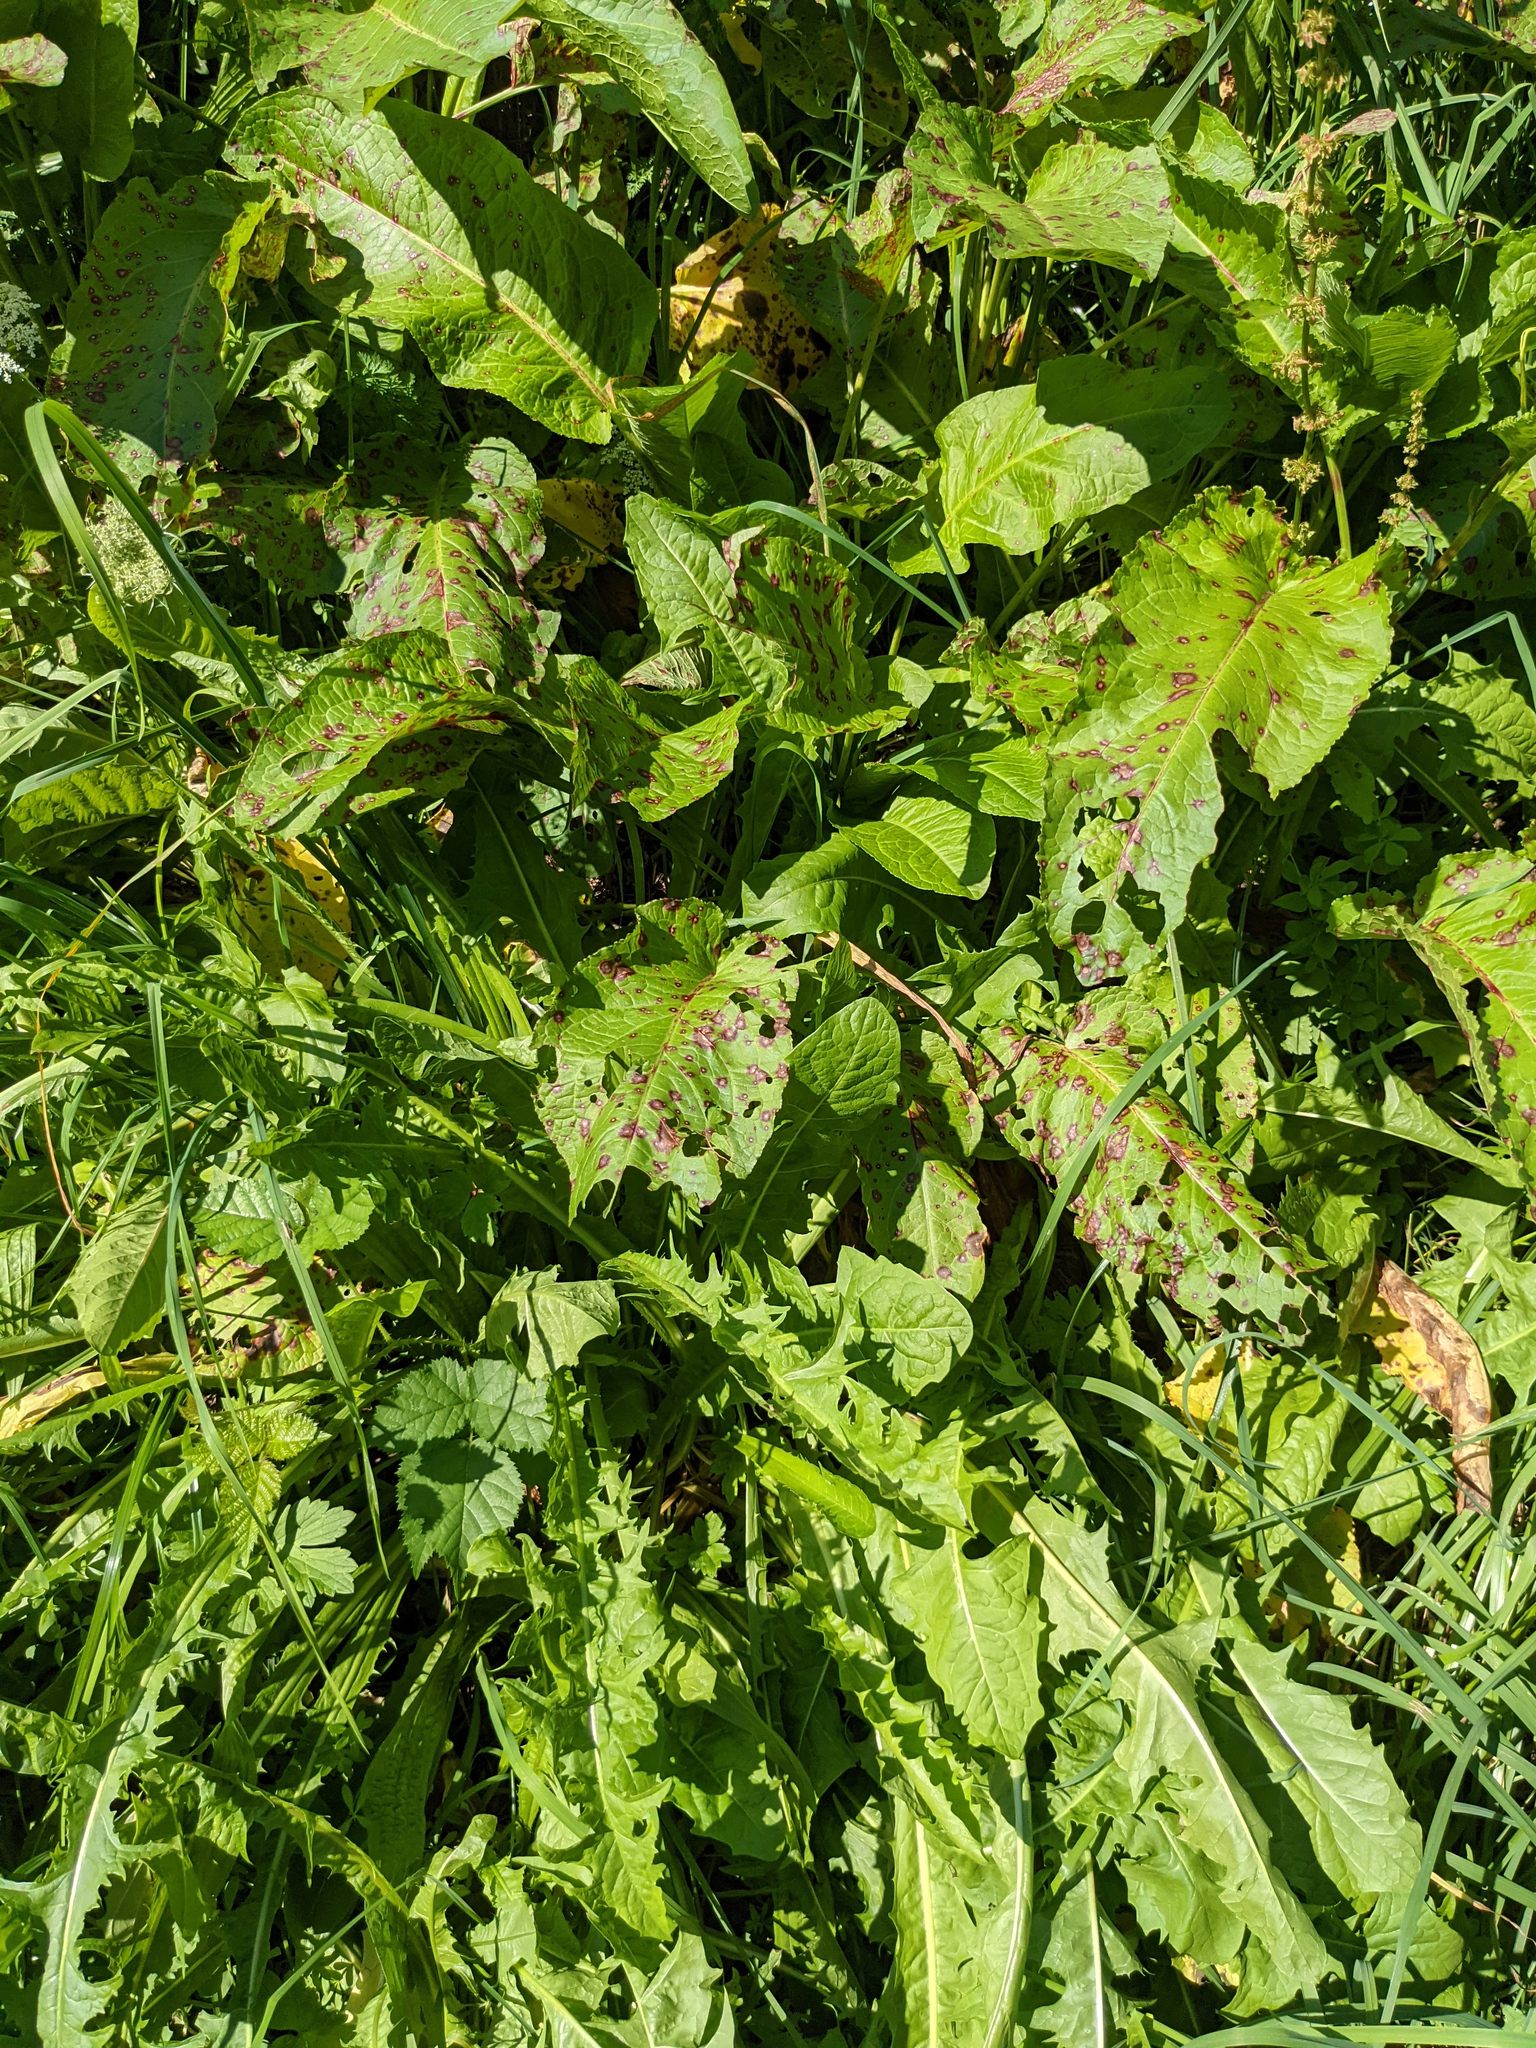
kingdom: Plantae
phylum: Tracheophyta
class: Magnoliopsida
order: Caryophyllales
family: Polygonaceae
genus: Rumex
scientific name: Rumex obtusifolius
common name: Bitter dock
